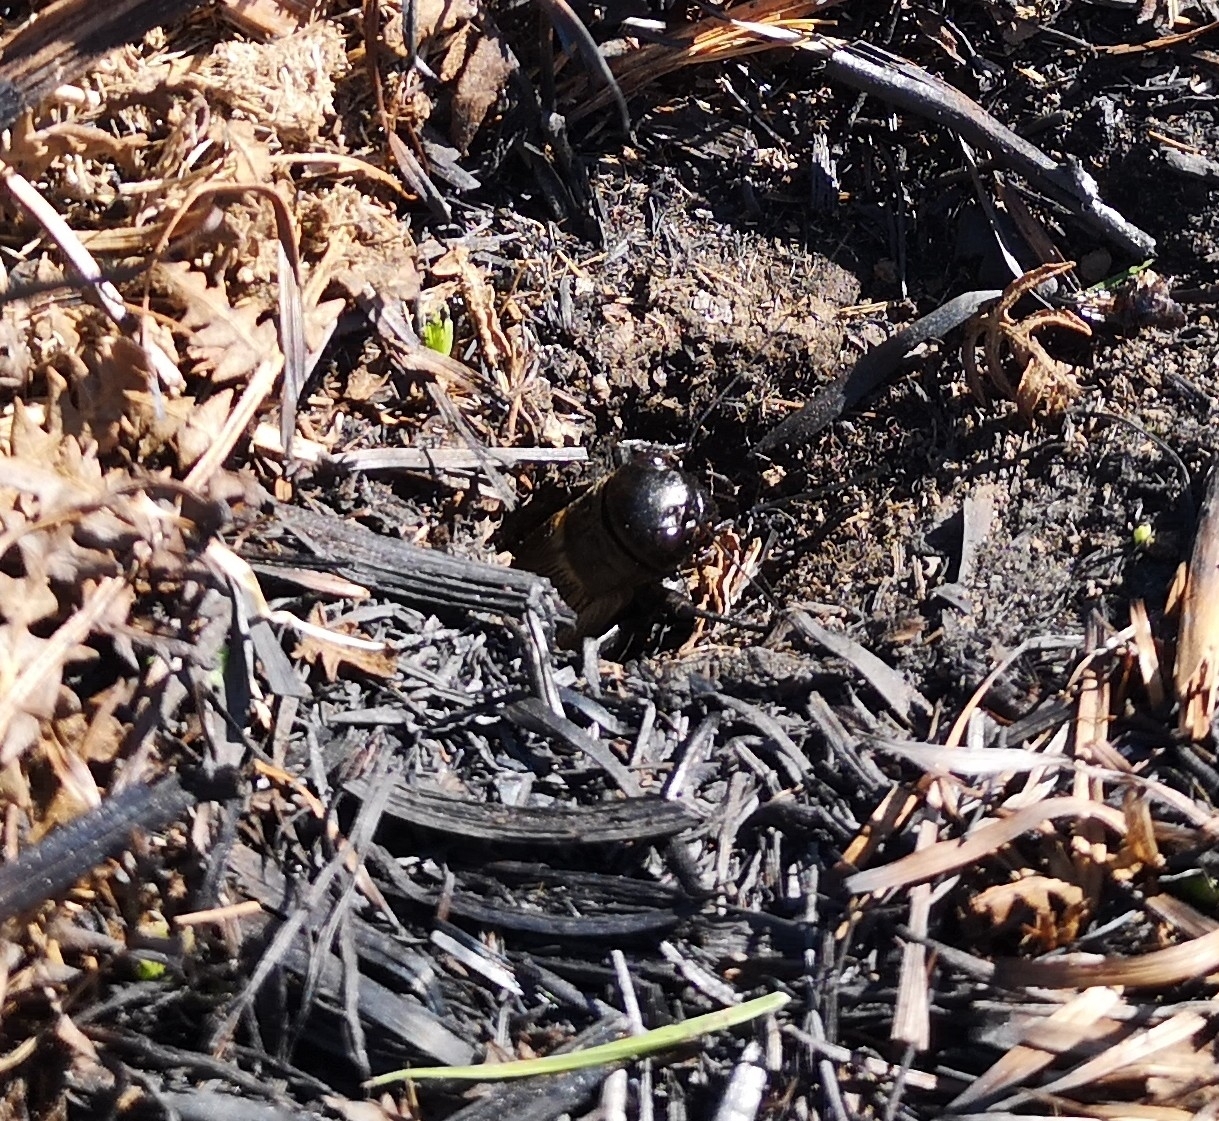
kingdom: Animalia
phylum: Arthropoda
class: Insecta
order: Orthoptera
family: Gryllidae
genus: Gryllus
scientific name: Gryllus campestris
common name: Field cricket
